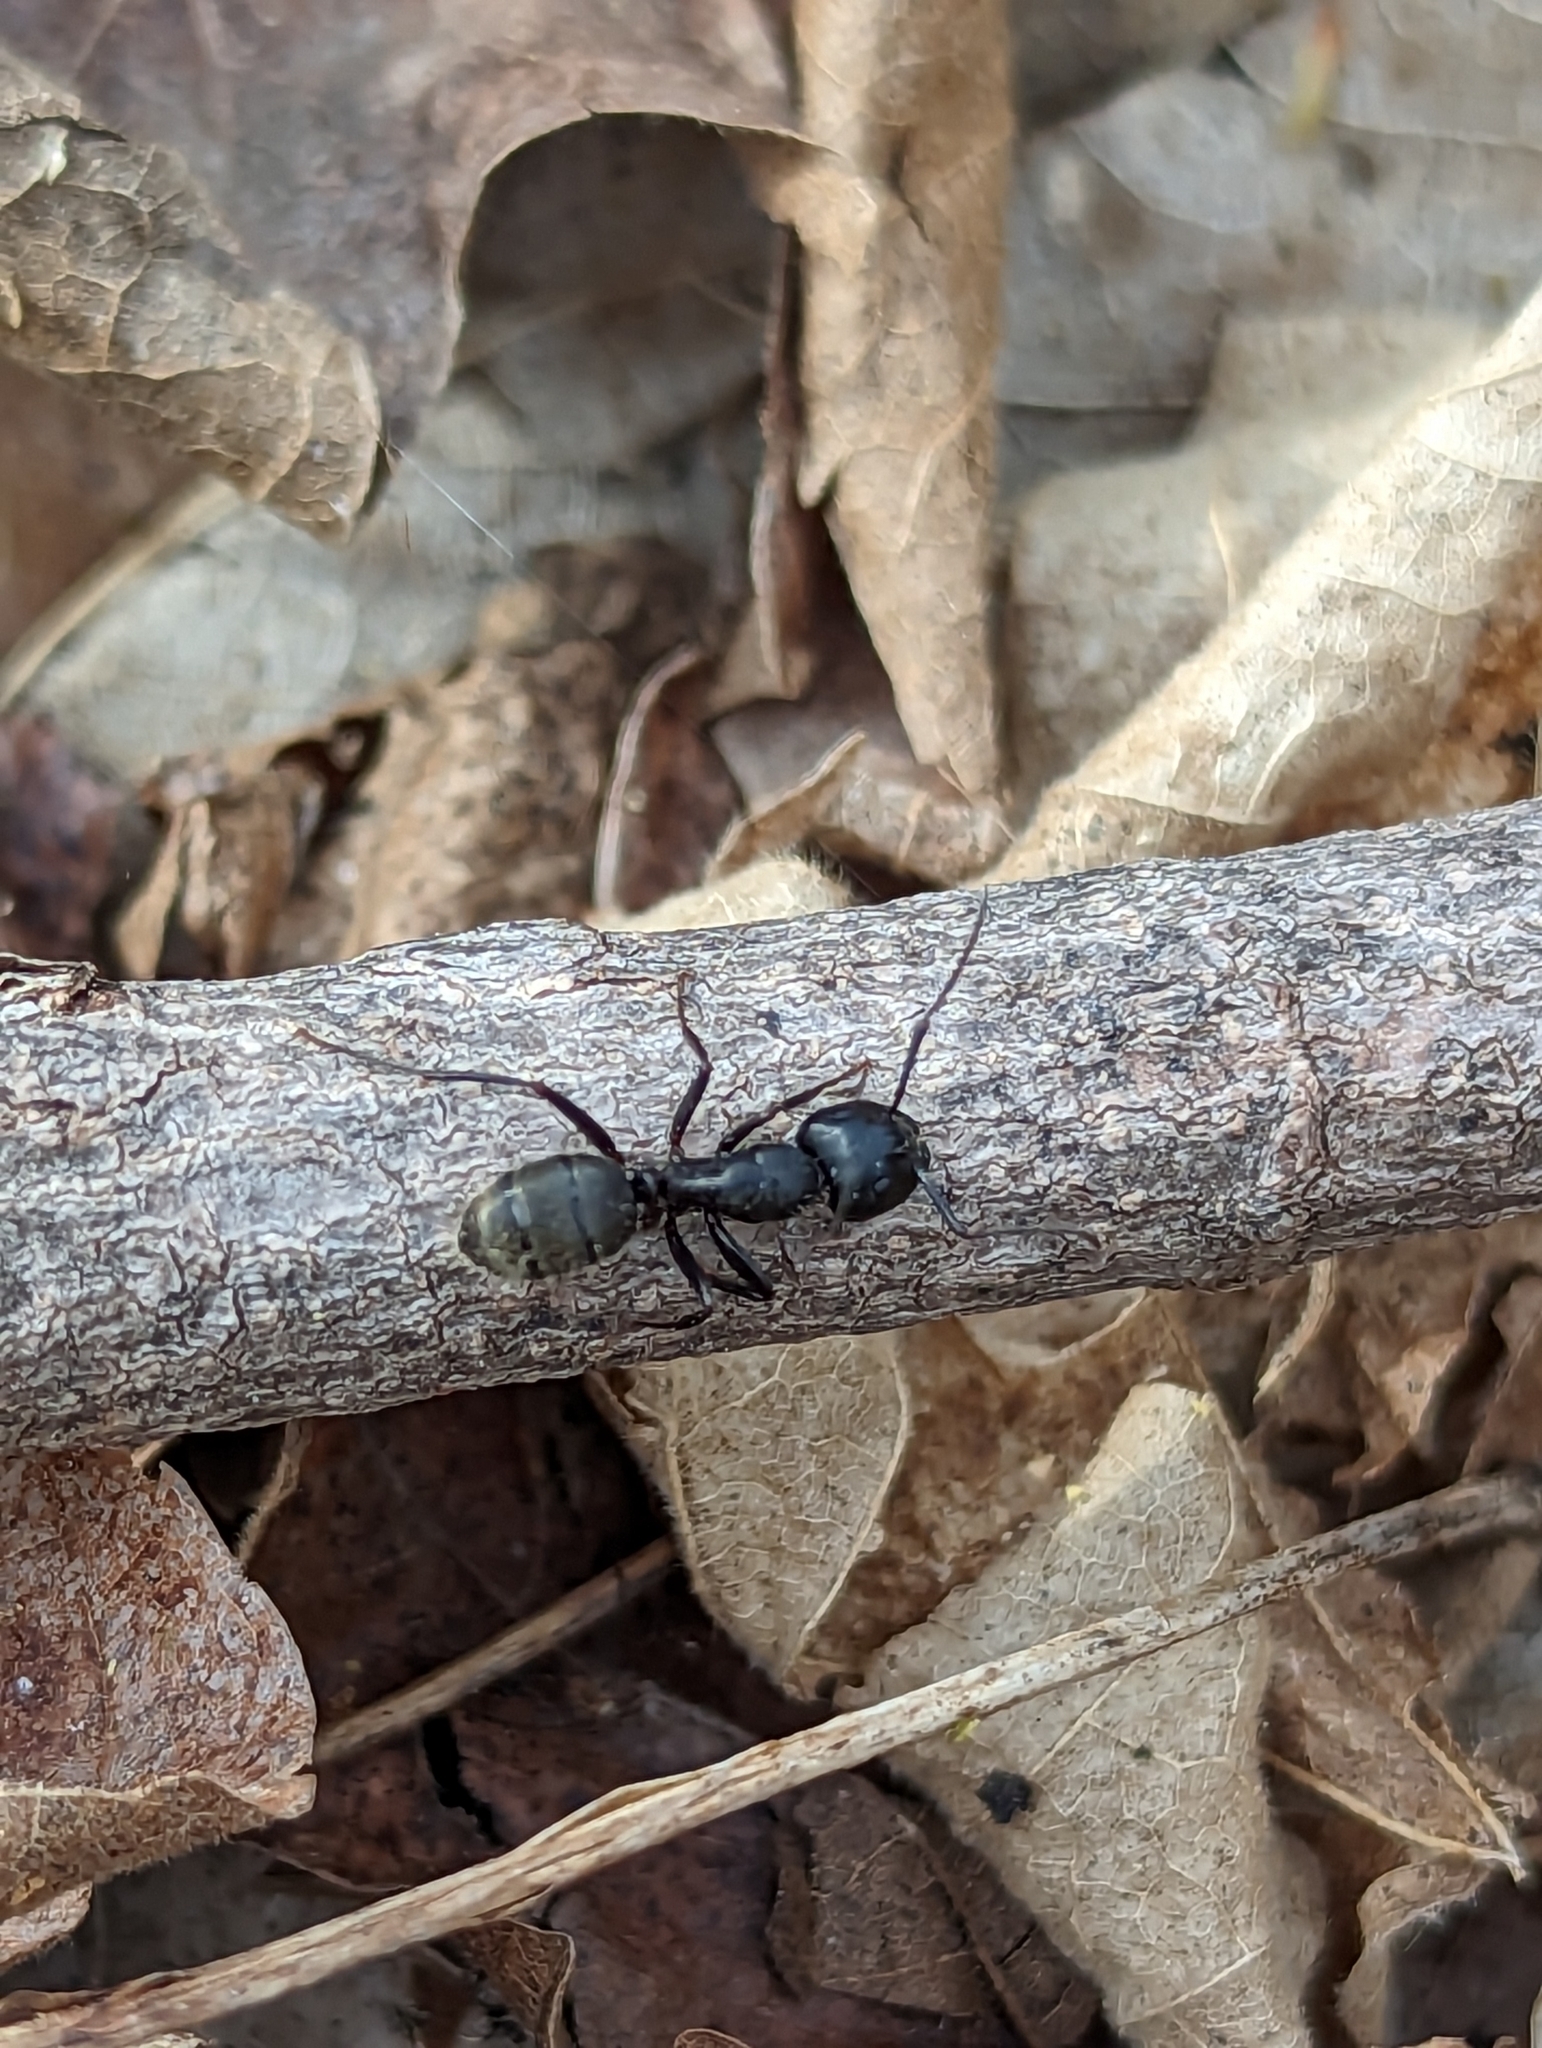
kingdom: Animalia
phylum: Arthropoda
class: Insecta
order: Hymenoptera
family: Formicidae
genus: Camponotus
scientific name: Camponotus pennsylvanicus
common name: Black carpenter ant
